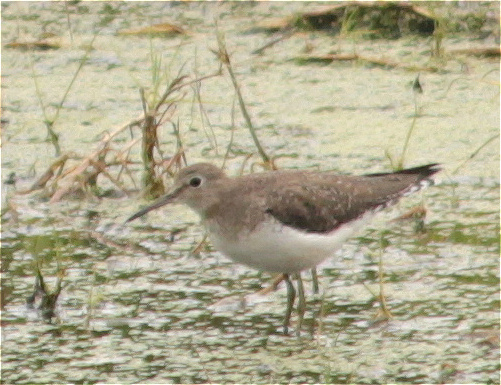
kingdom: Animalia
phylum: Chordata
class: Aves
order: Charadriiformes
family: Scolopacidae
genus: Tringa
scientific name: Tringa solitaria
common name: Solitary sandpiper
